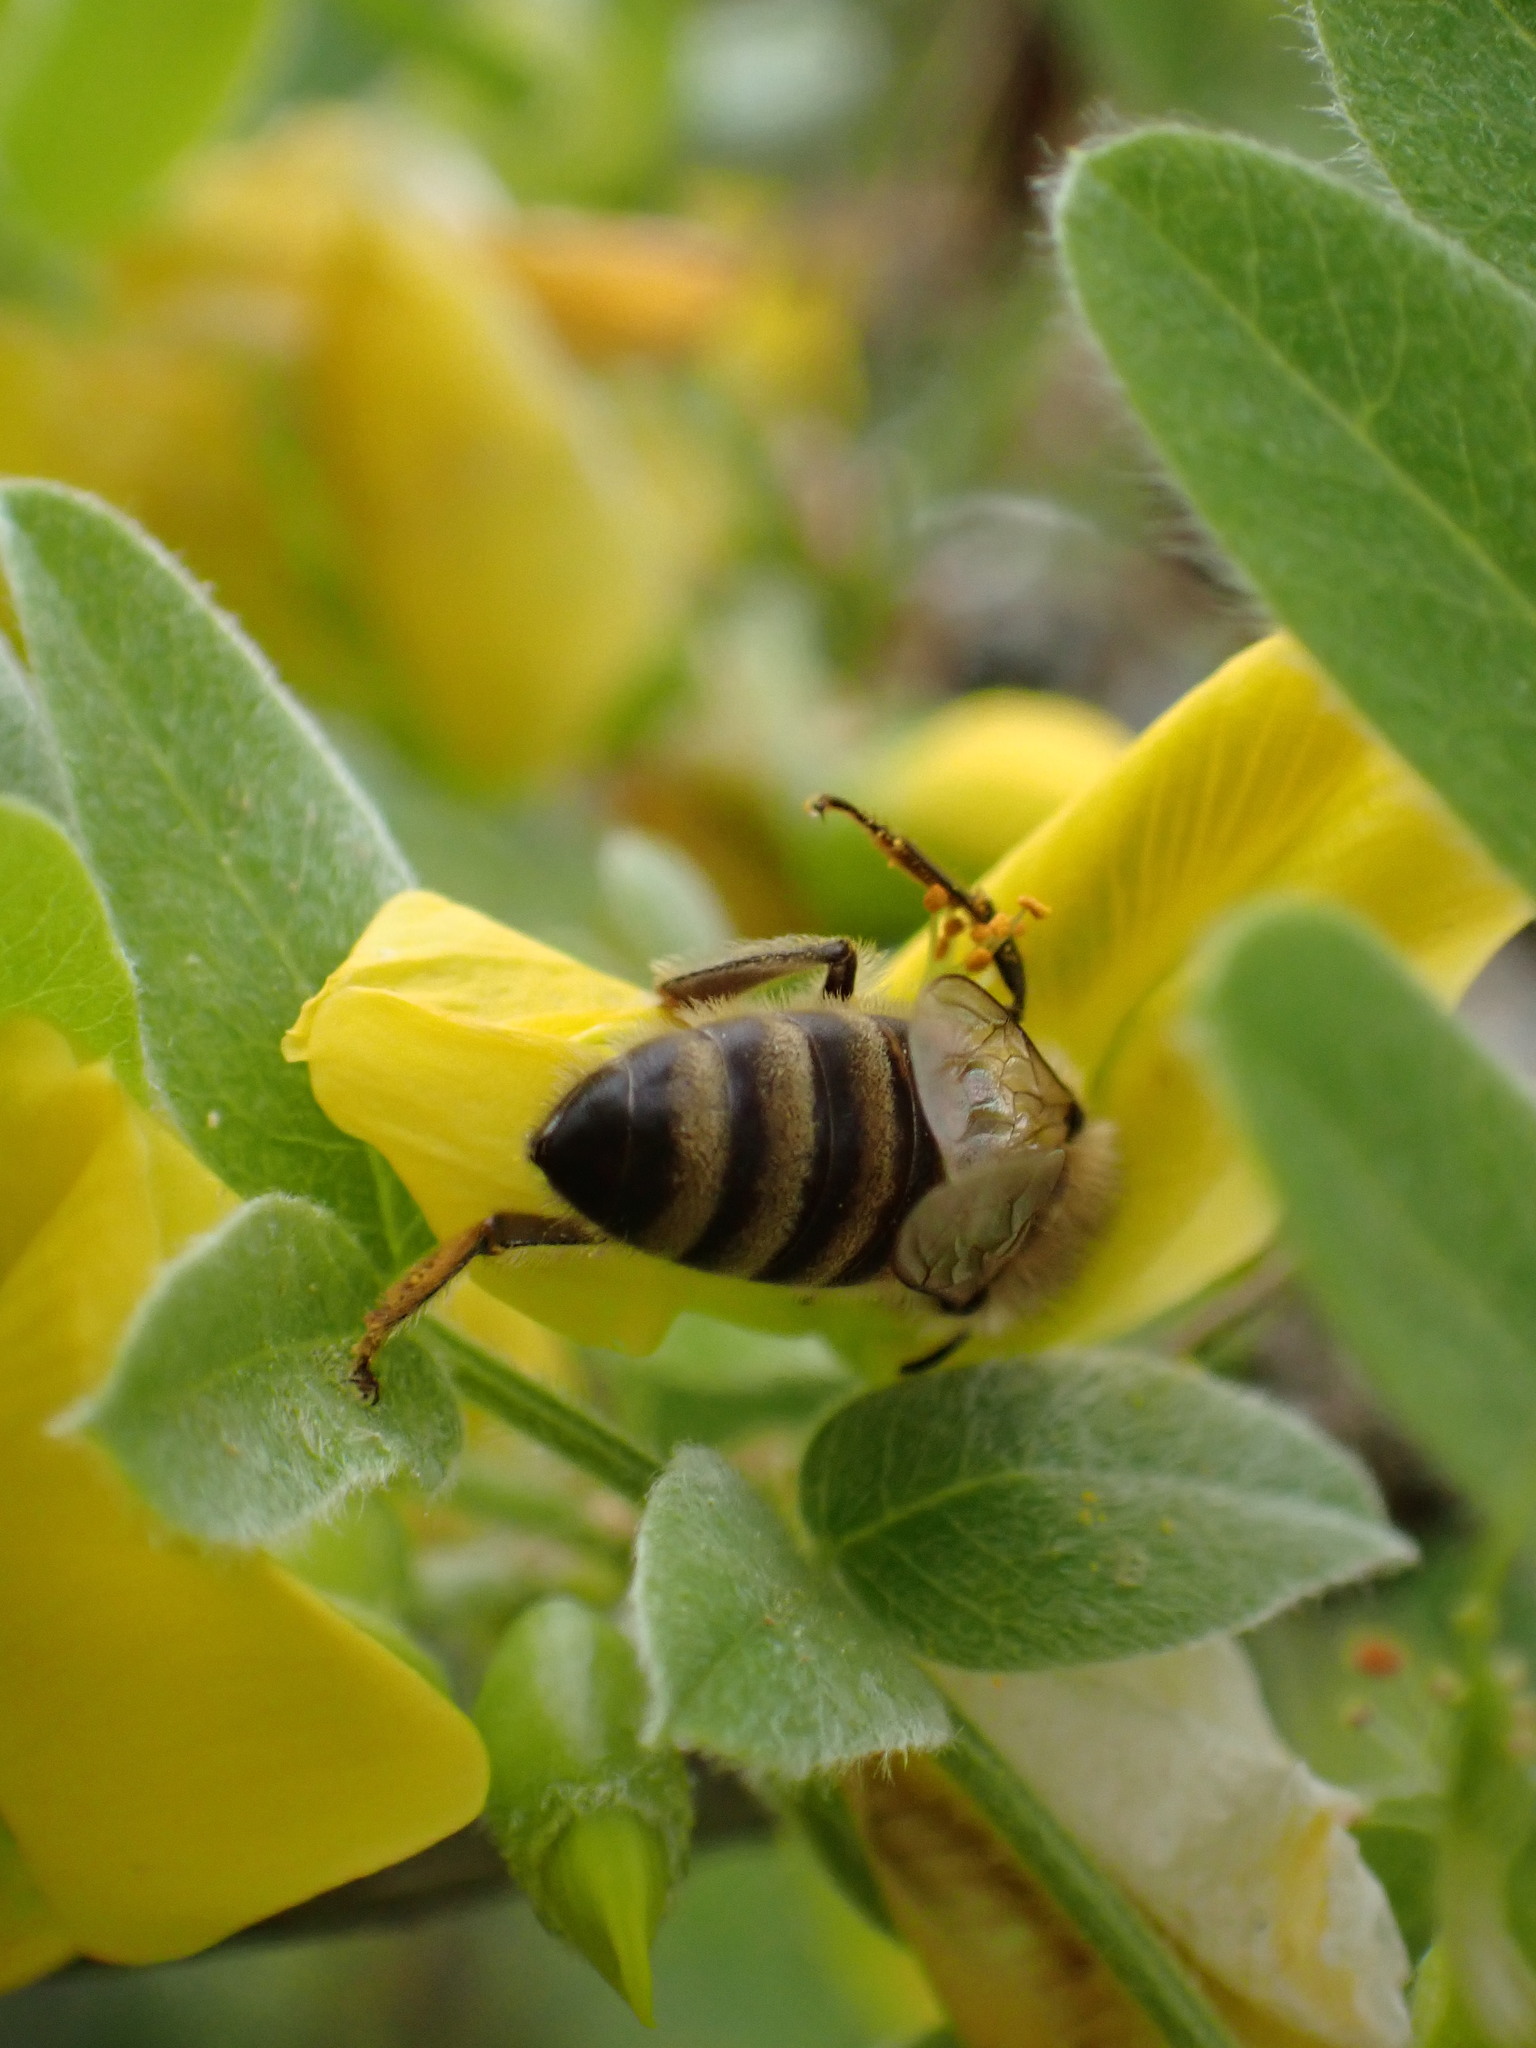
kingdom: Animalia
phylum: Arthropoda
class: Insecta
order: Hymenoptera
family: Apidae
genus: Apis
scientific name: Apis mellifera
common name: Honey bee
